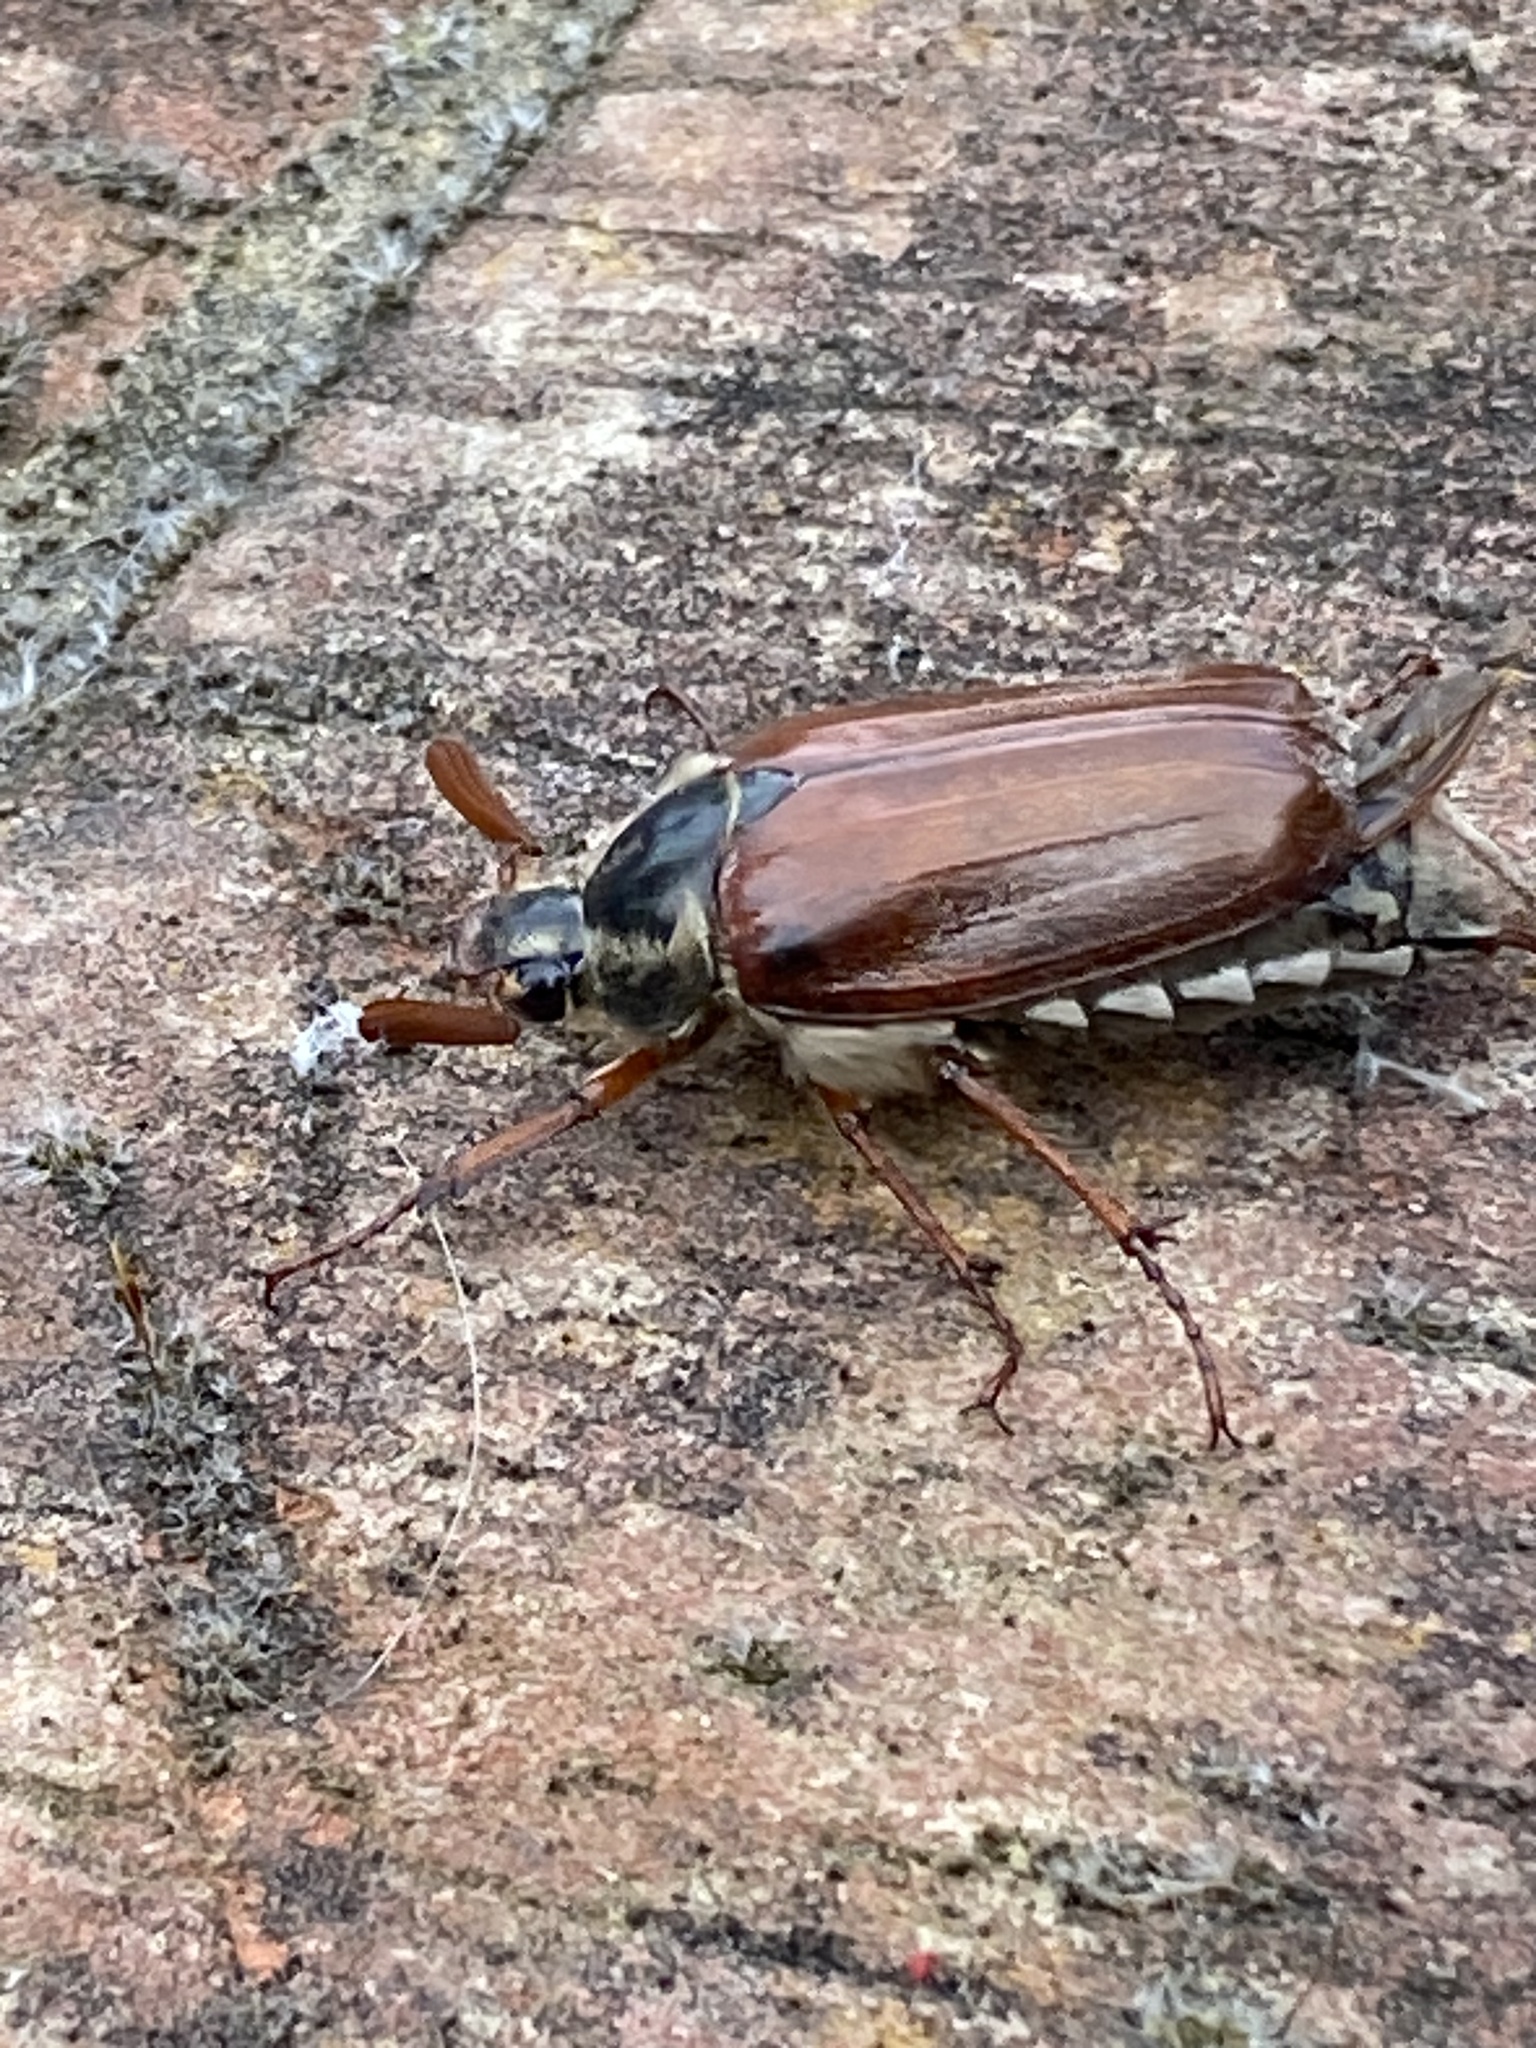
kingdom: Animalia
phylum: Arthropoda
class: Insecta
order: Coleoptera
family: Scarabaeidae
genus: Melolontha
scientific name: Melolontha melolontha
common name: Cockchafer maybeetle
